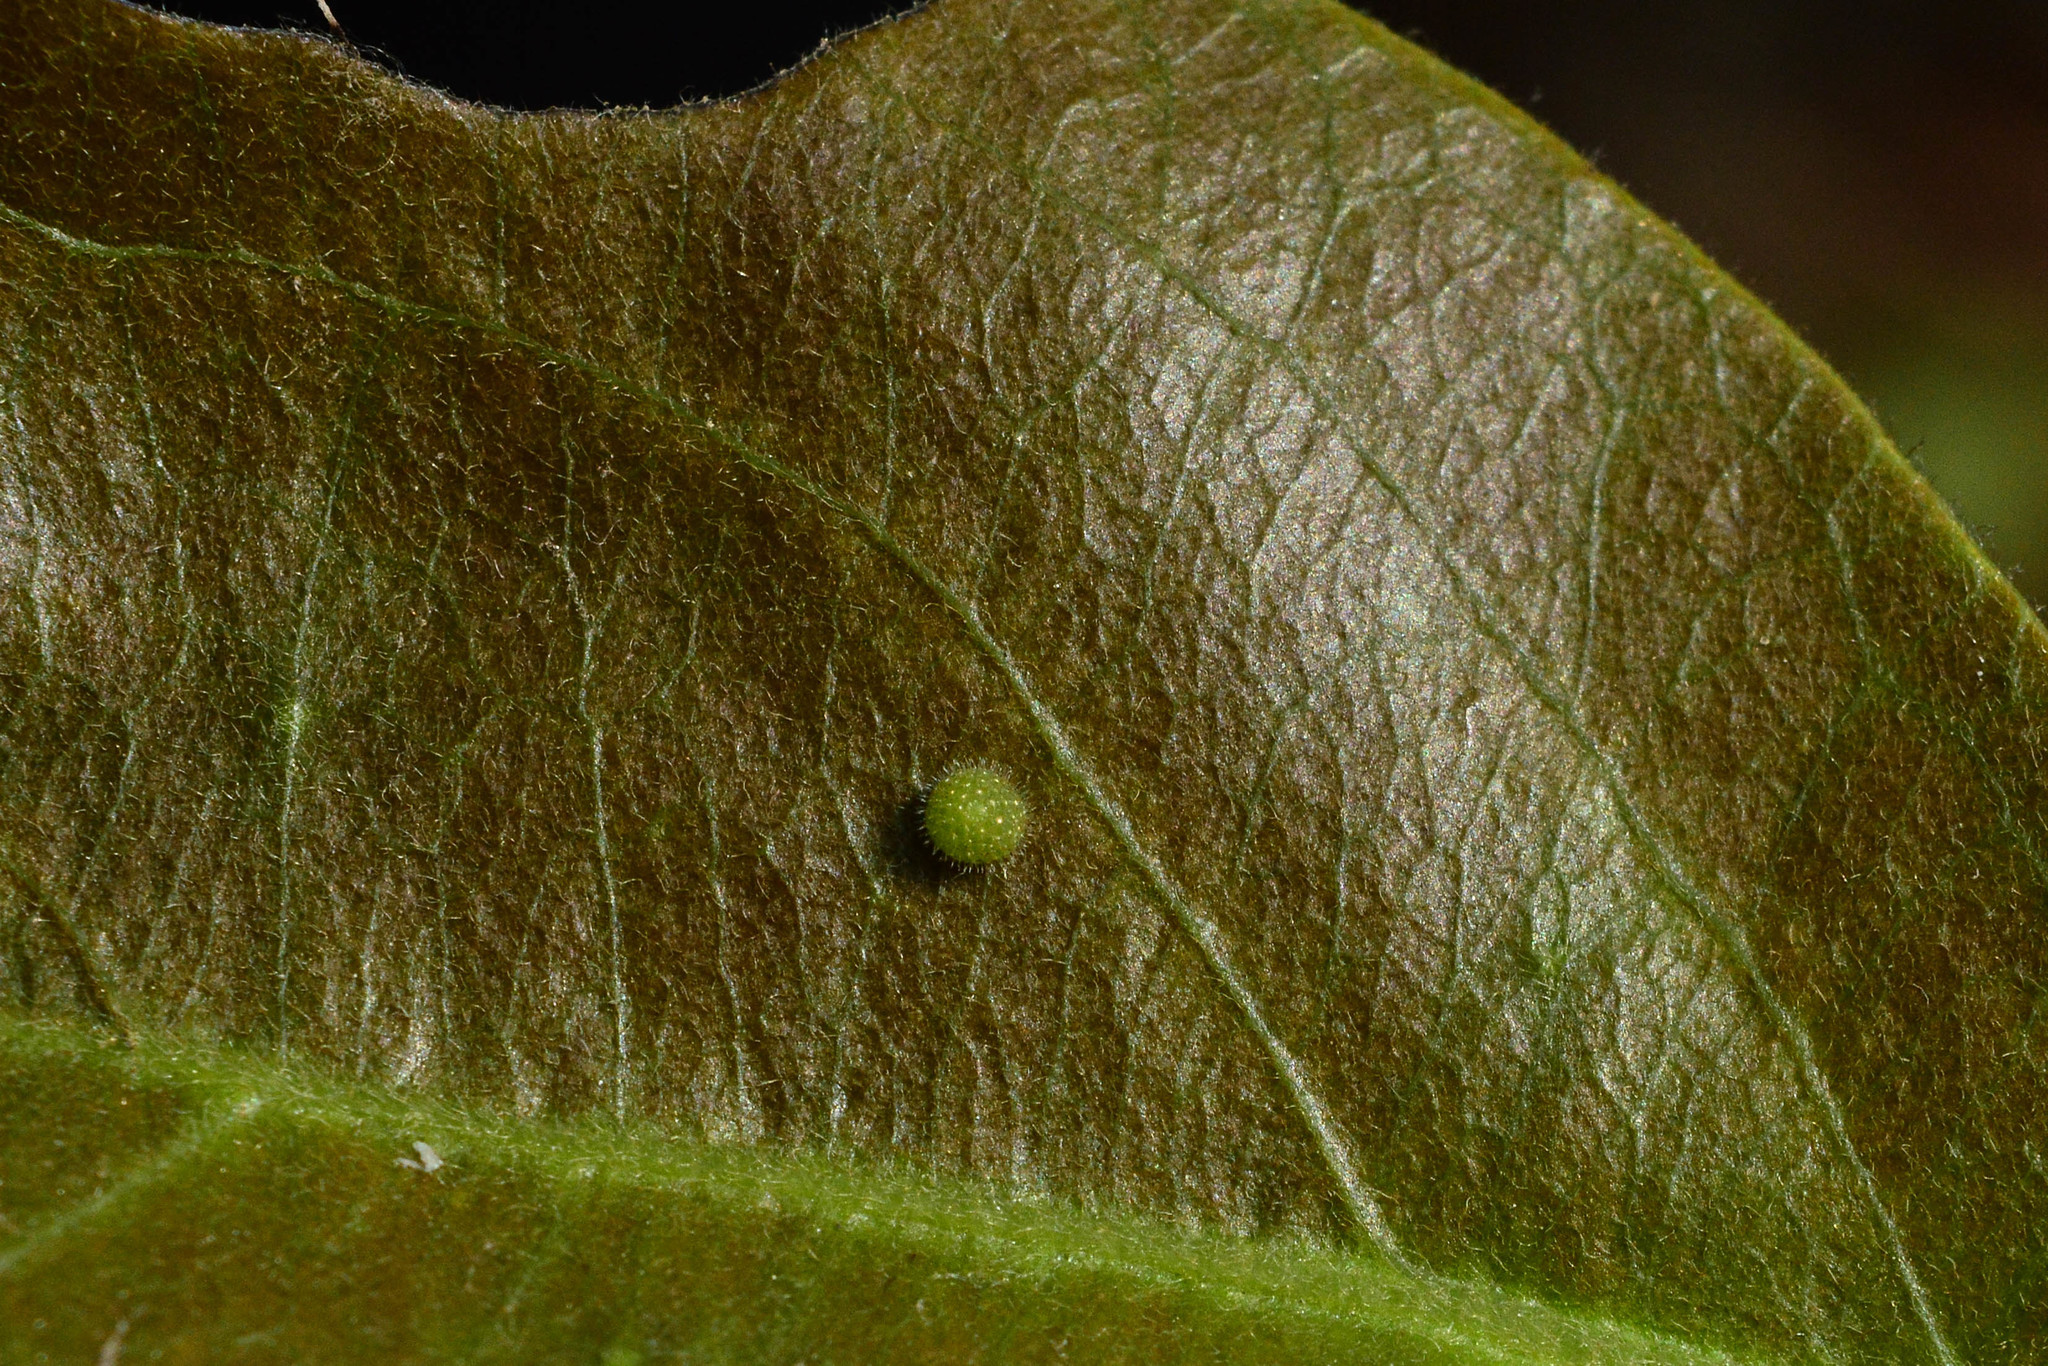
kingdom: Animalia
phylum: Arthropoda
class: Insecta
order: Lepidoptera
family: Nymphalidae
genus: Euthalia
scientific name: Euthalia nais
